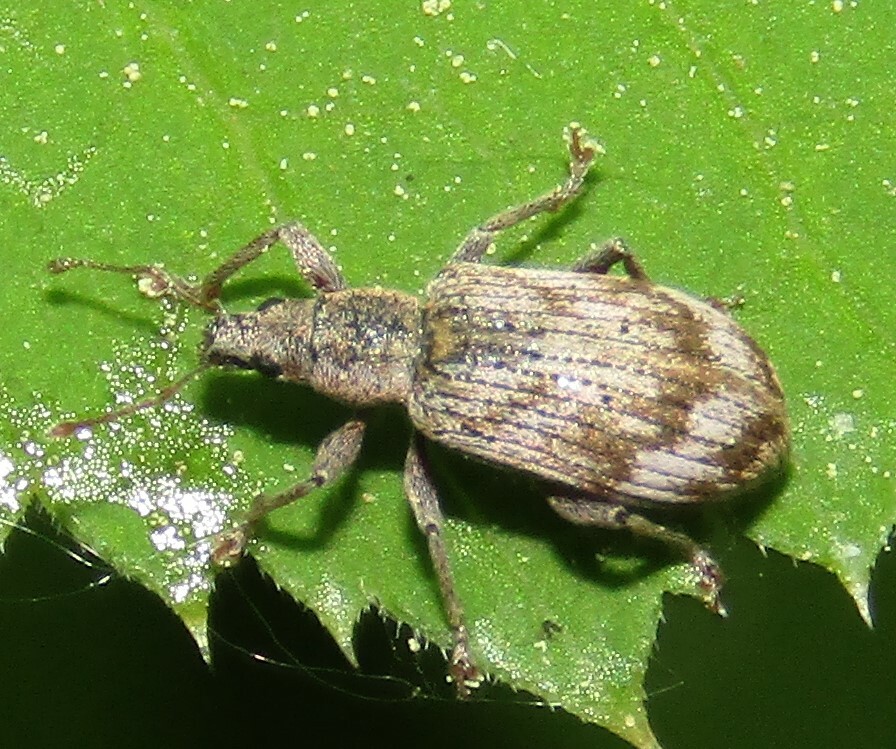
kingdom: Animalia
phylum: Arthropoda
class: Insecta
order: Coleoptera
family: Curculionidae
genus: Polydrusus
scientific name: Polydrusus tereticollis
